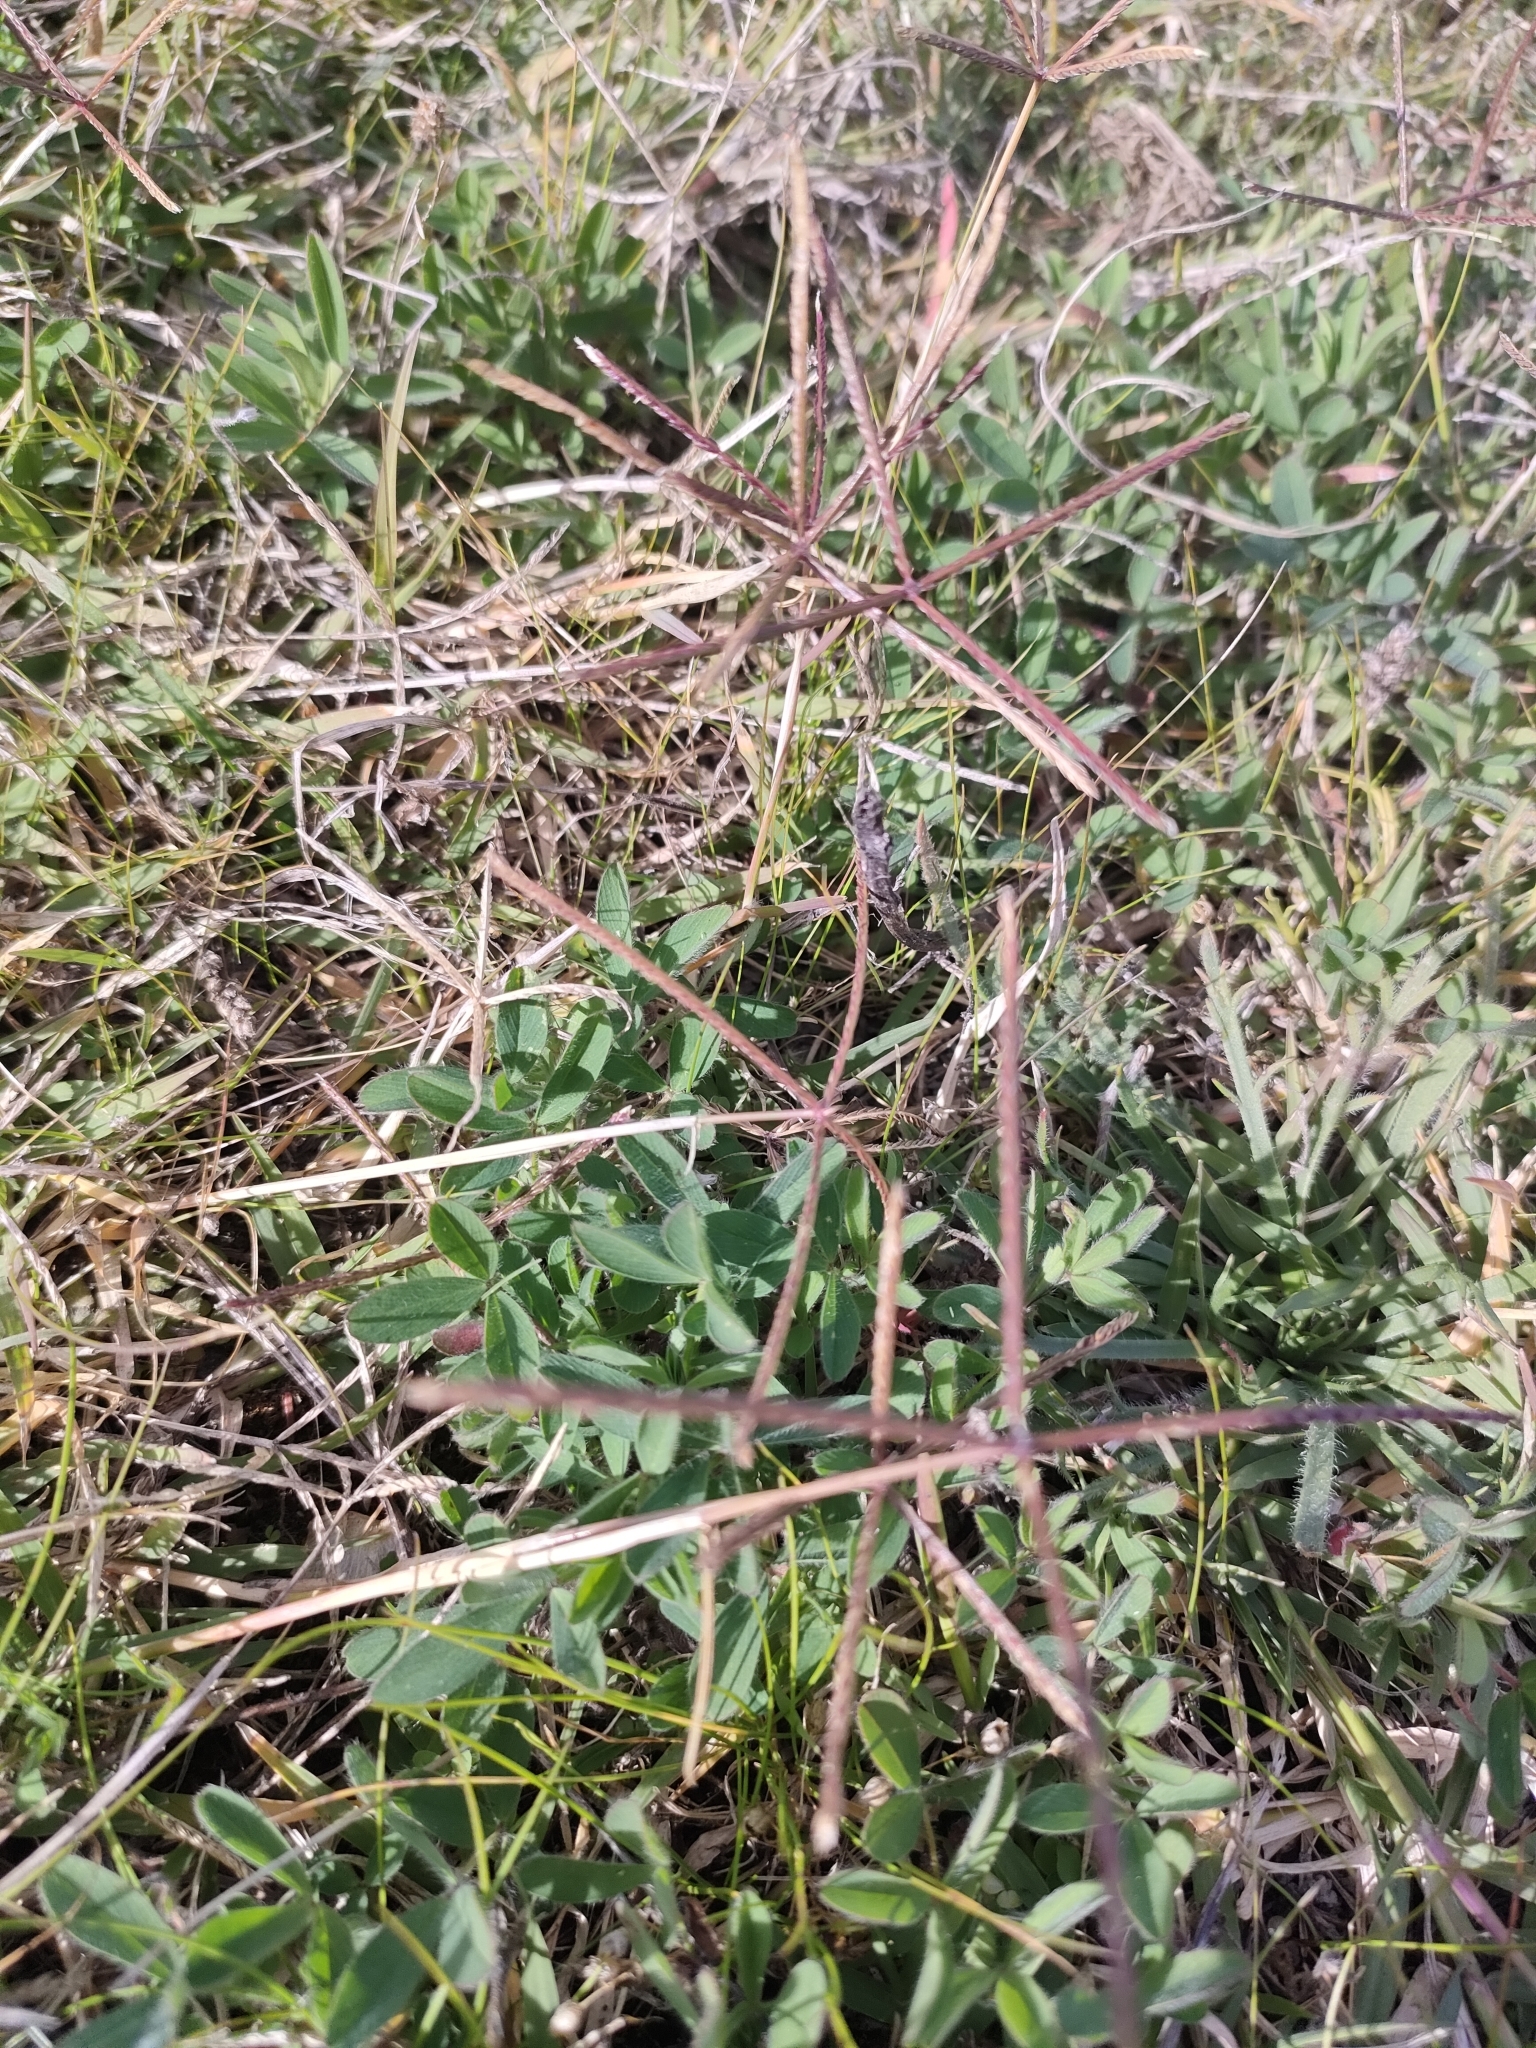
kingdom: Plantae
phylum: Tracheophyta
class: Liliopsida
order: Poales
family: Poaceae
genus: Cynodon
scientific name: Cynodon dactylon
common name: Bermuda grass
